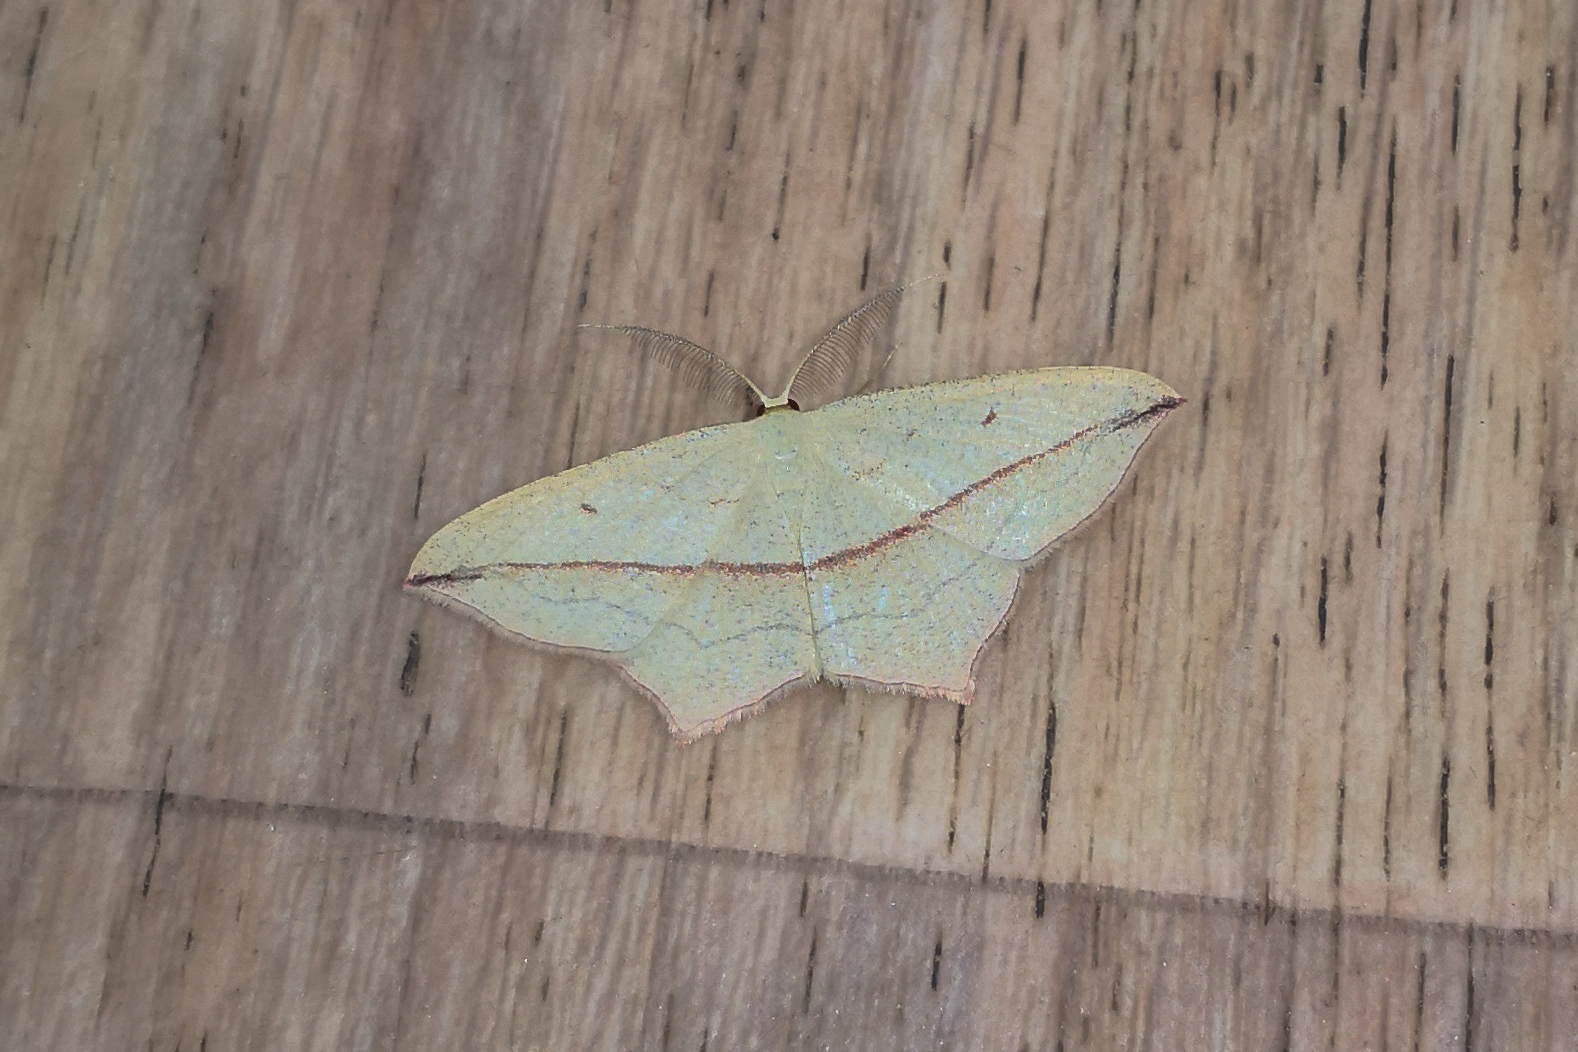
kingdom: Animalia
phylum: Arthropoda
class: Insecta
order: Lepidoptera
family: Geometridae
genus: Timandra
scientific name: Timandra comae
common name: Blood-vein
